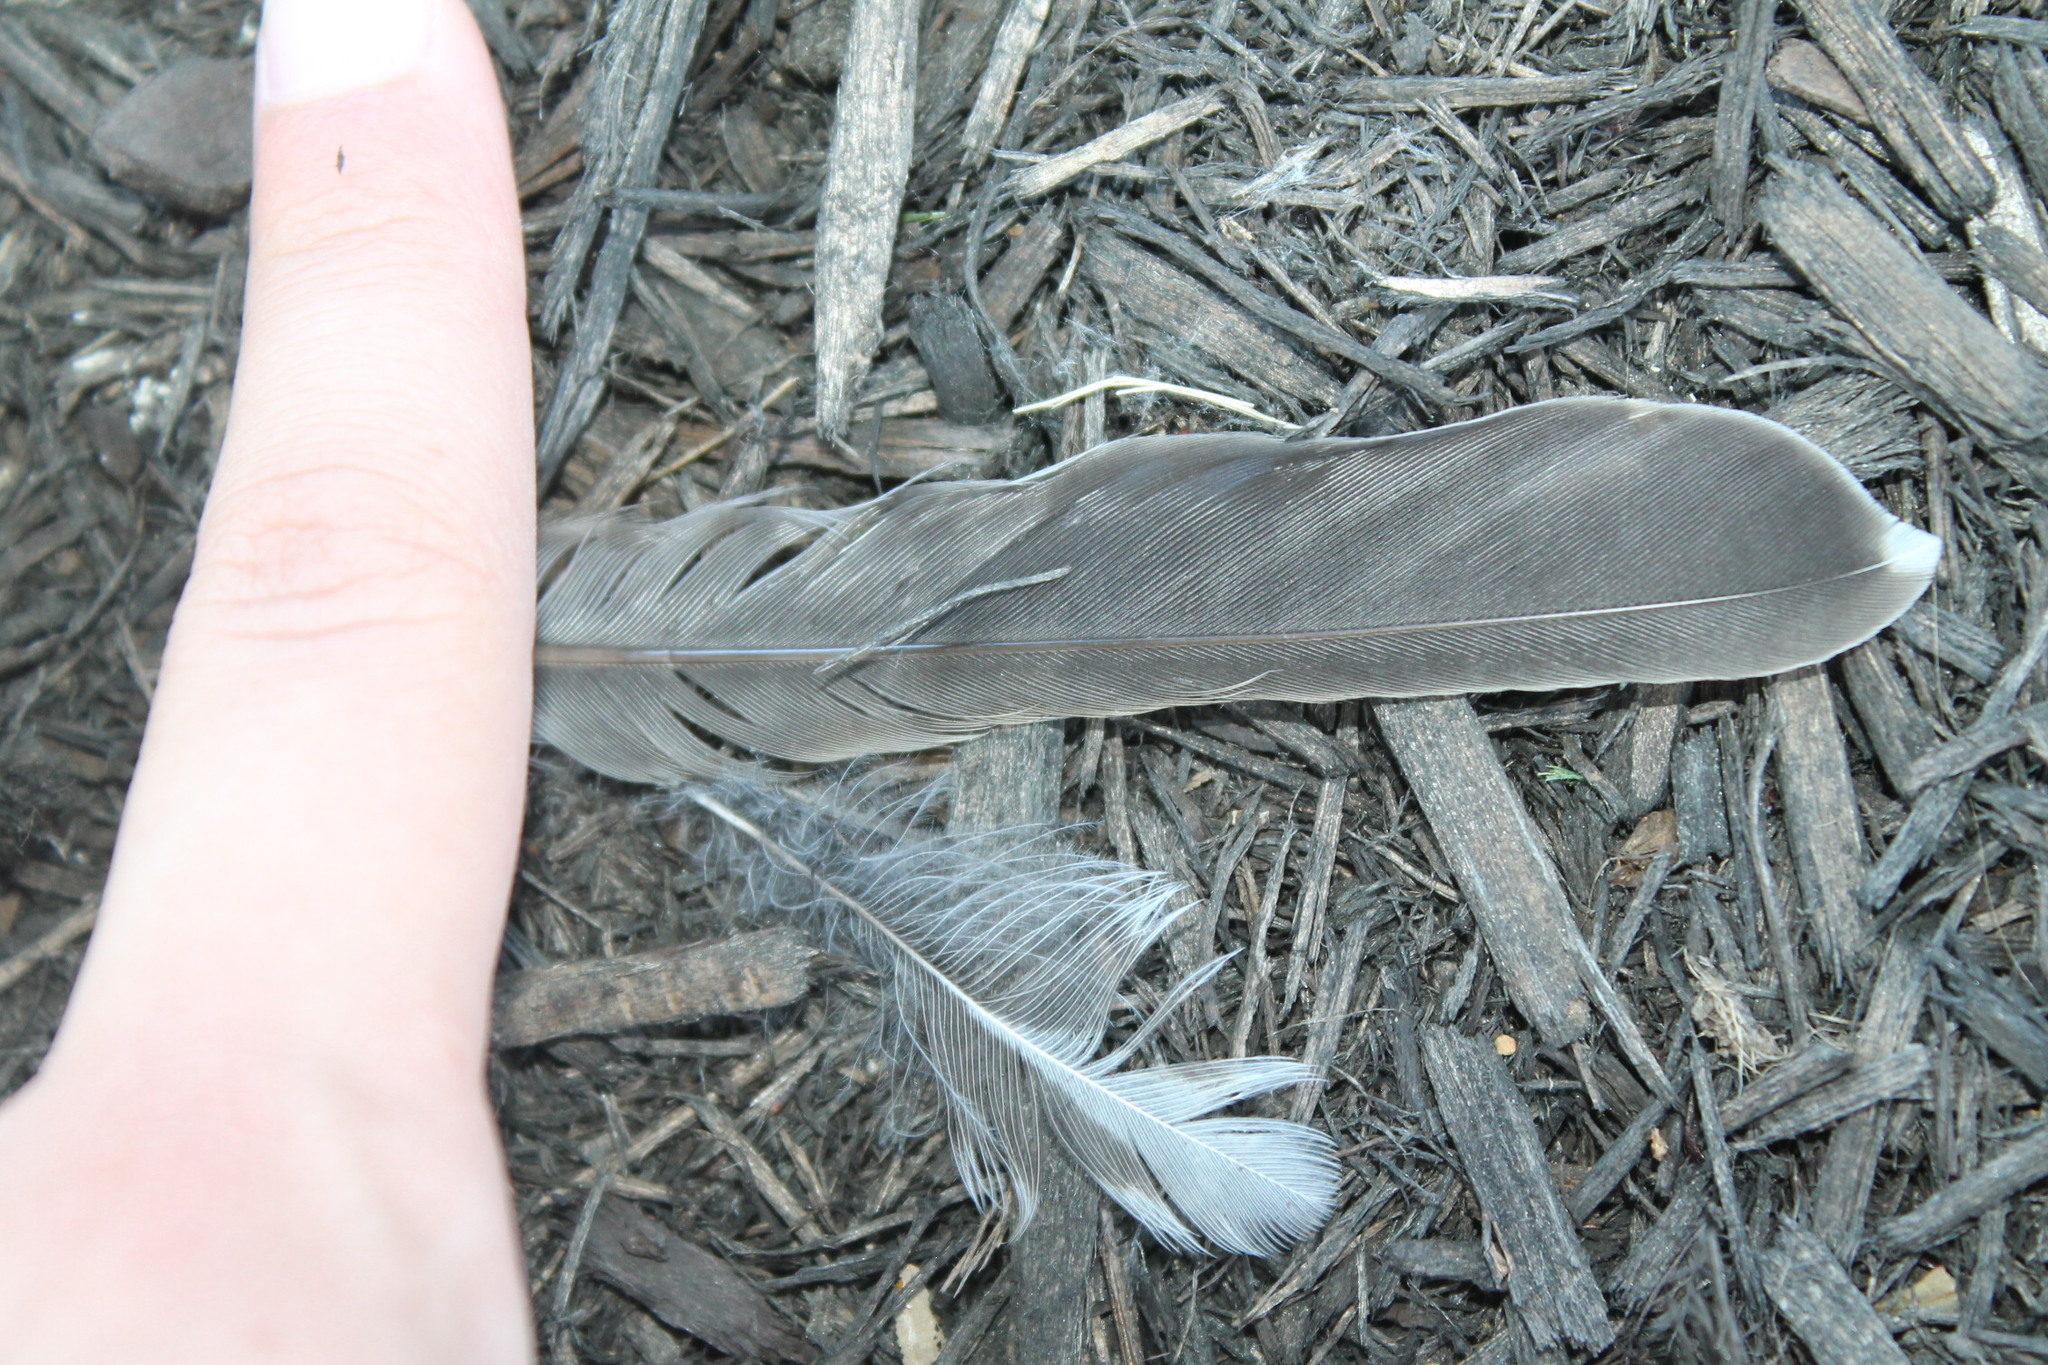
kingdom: Animalia
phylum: Chordata
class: Aves
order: Passeriformes
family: Turdidae
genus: Turdus
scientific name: Turdus migratorius
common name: American robin
